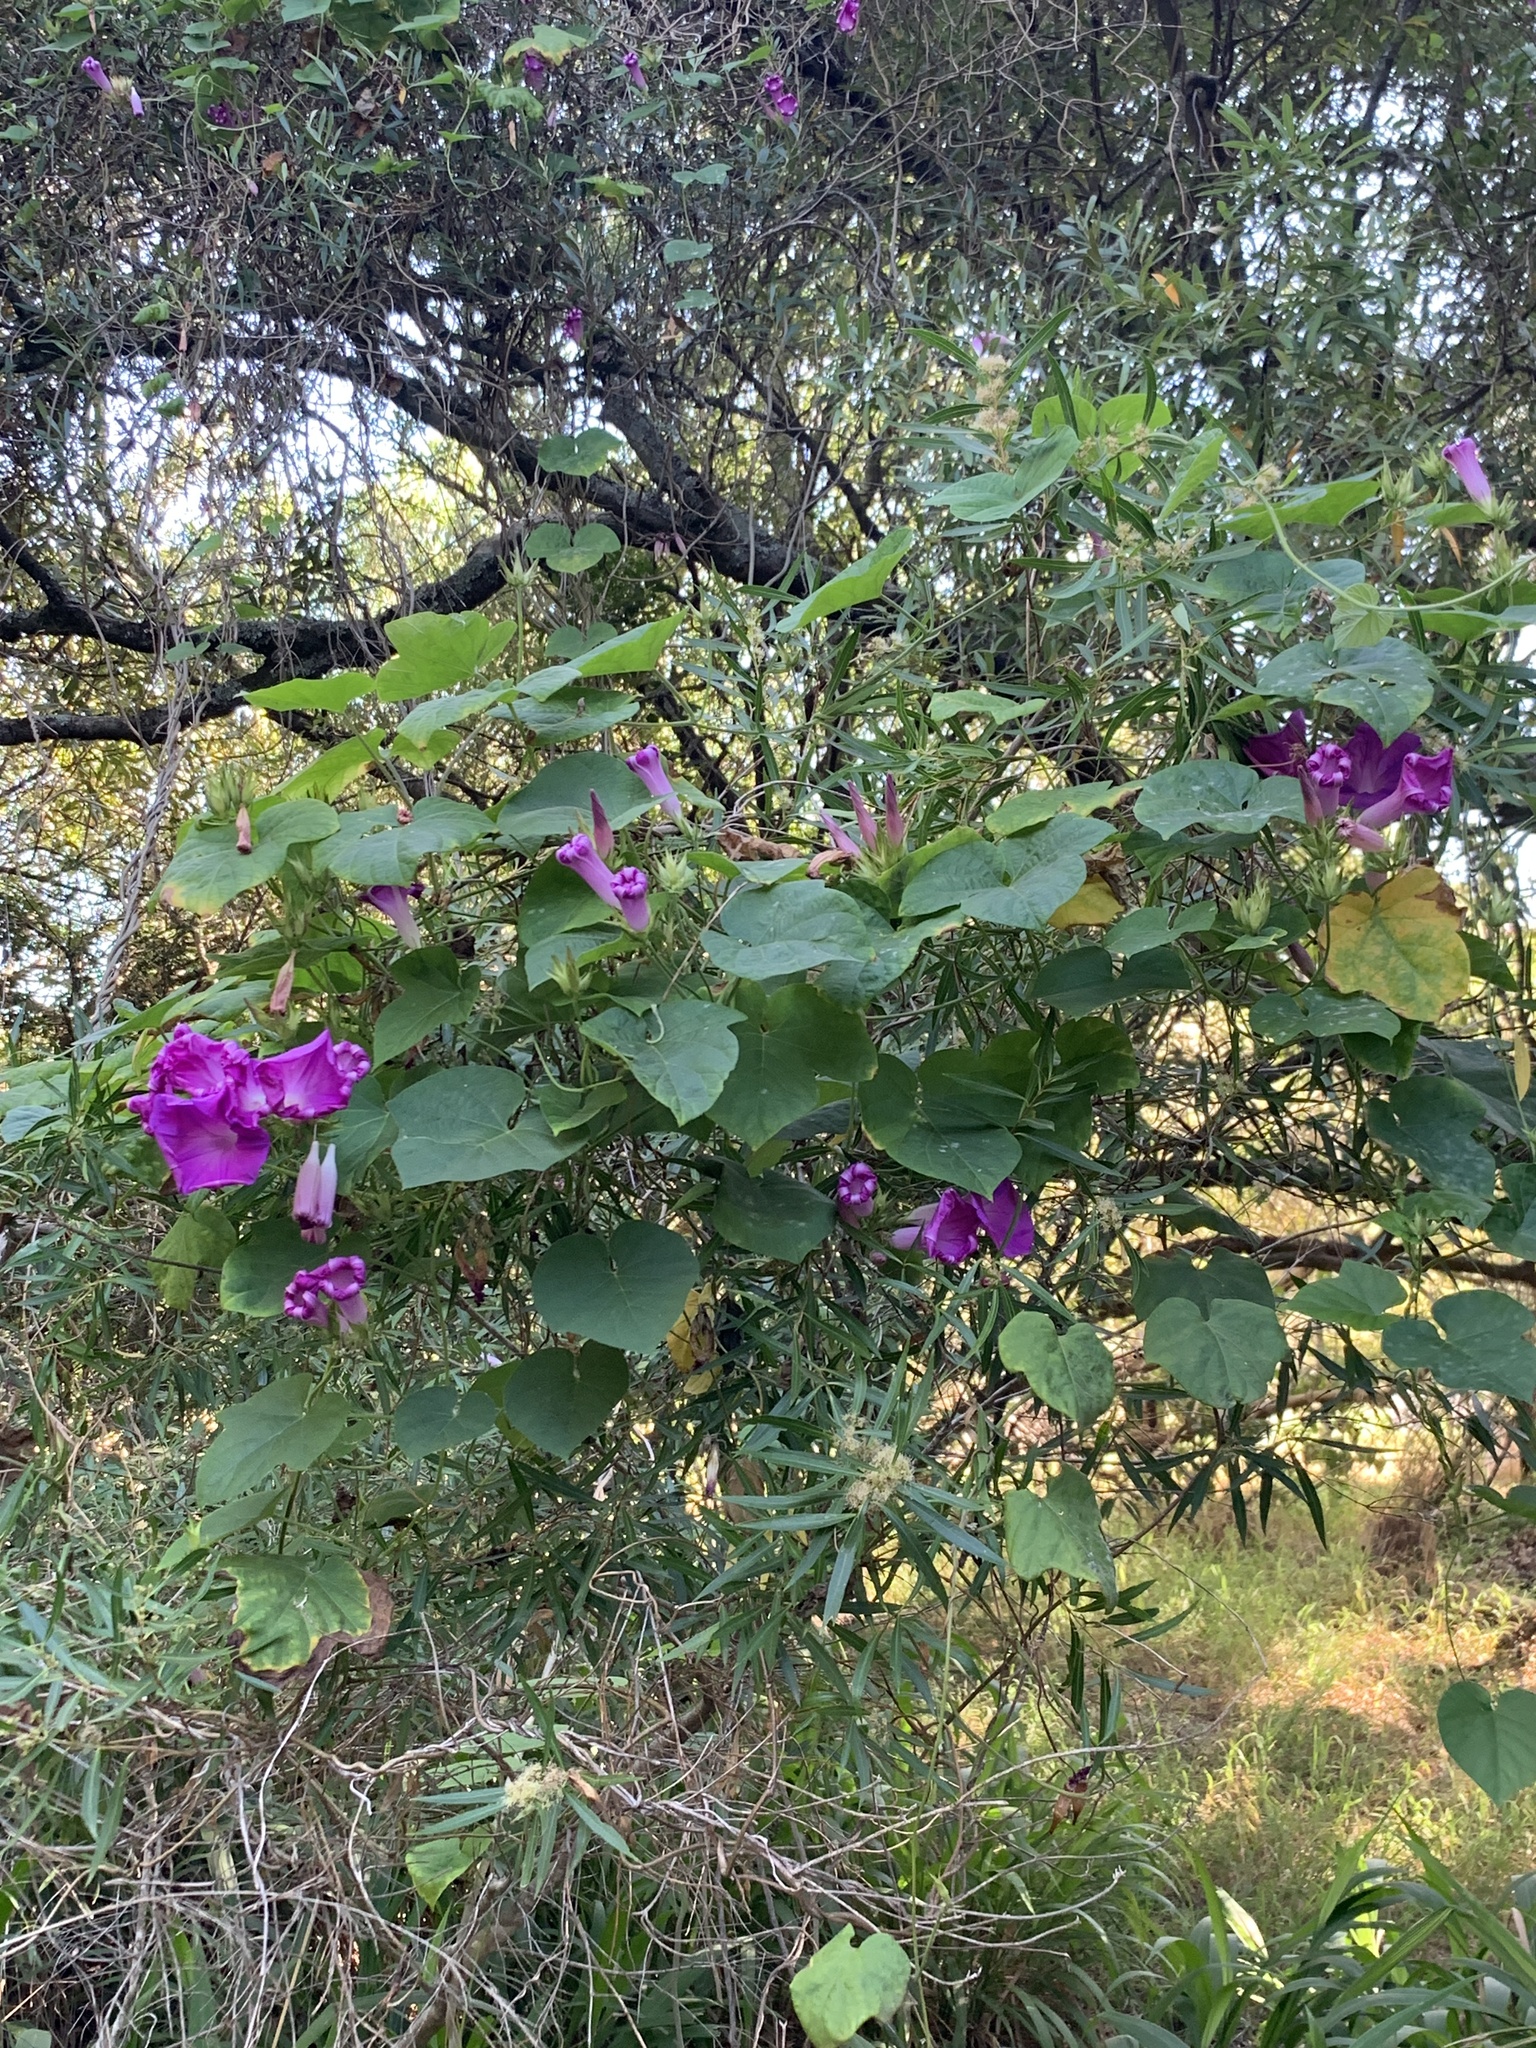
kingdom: Plantae
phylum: Tracheophyta
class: Magnoliopsida
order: Solanales
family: Convolvulaceae
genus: Ipomoea
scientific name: Ipomoea indica
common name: Blue dawnflower
